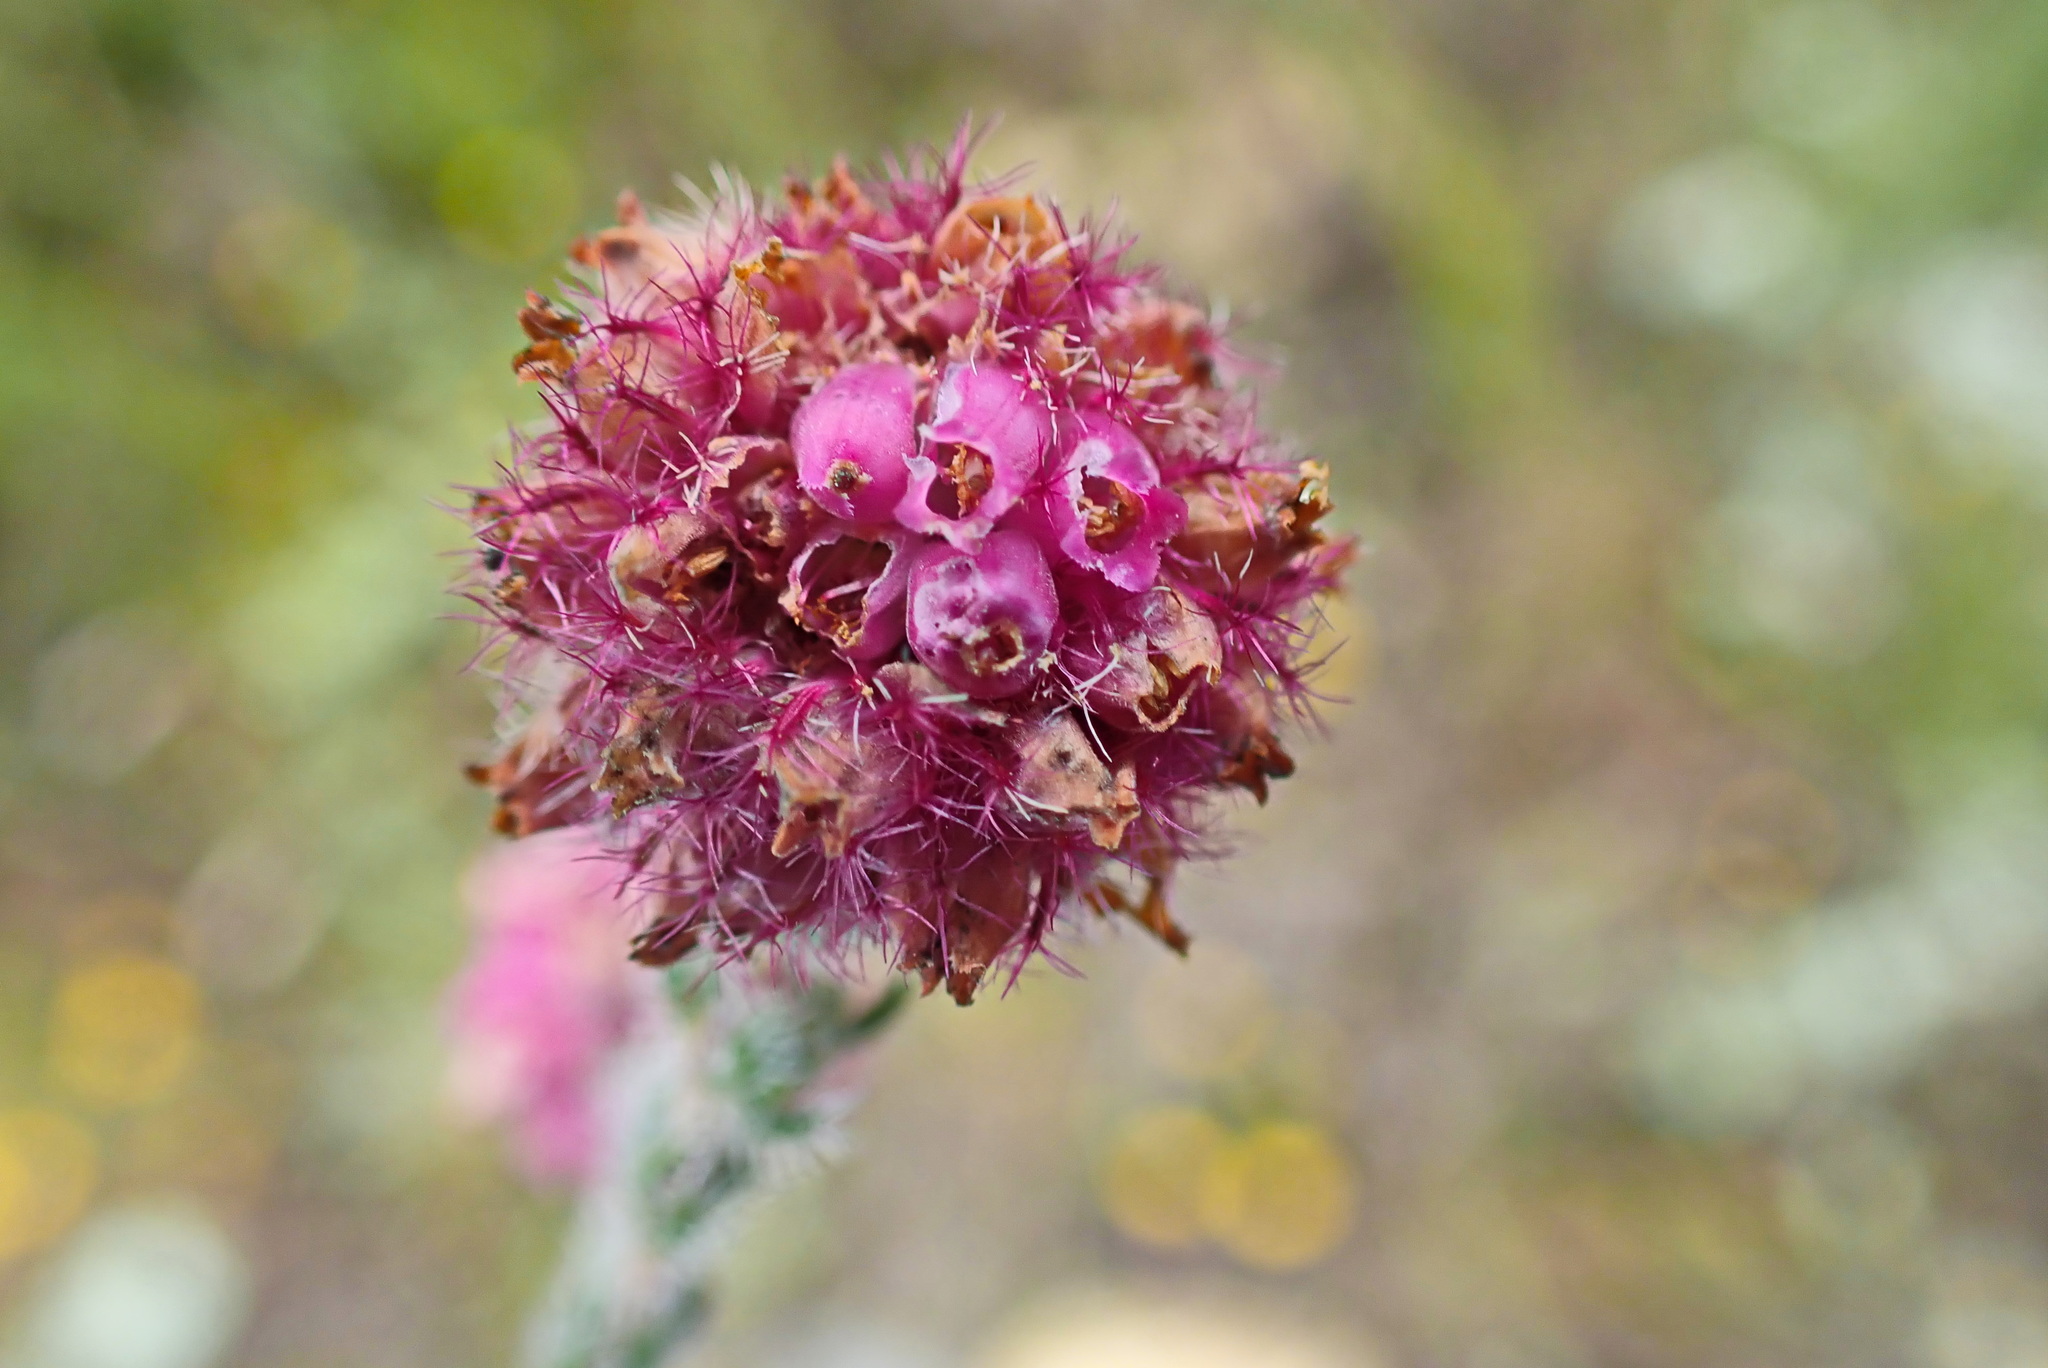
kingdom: Plantae
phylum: Tracheophyta
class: Magnoliopsida
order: Ericales
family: Ericaceae
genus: Erica
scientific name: Erica solandra
